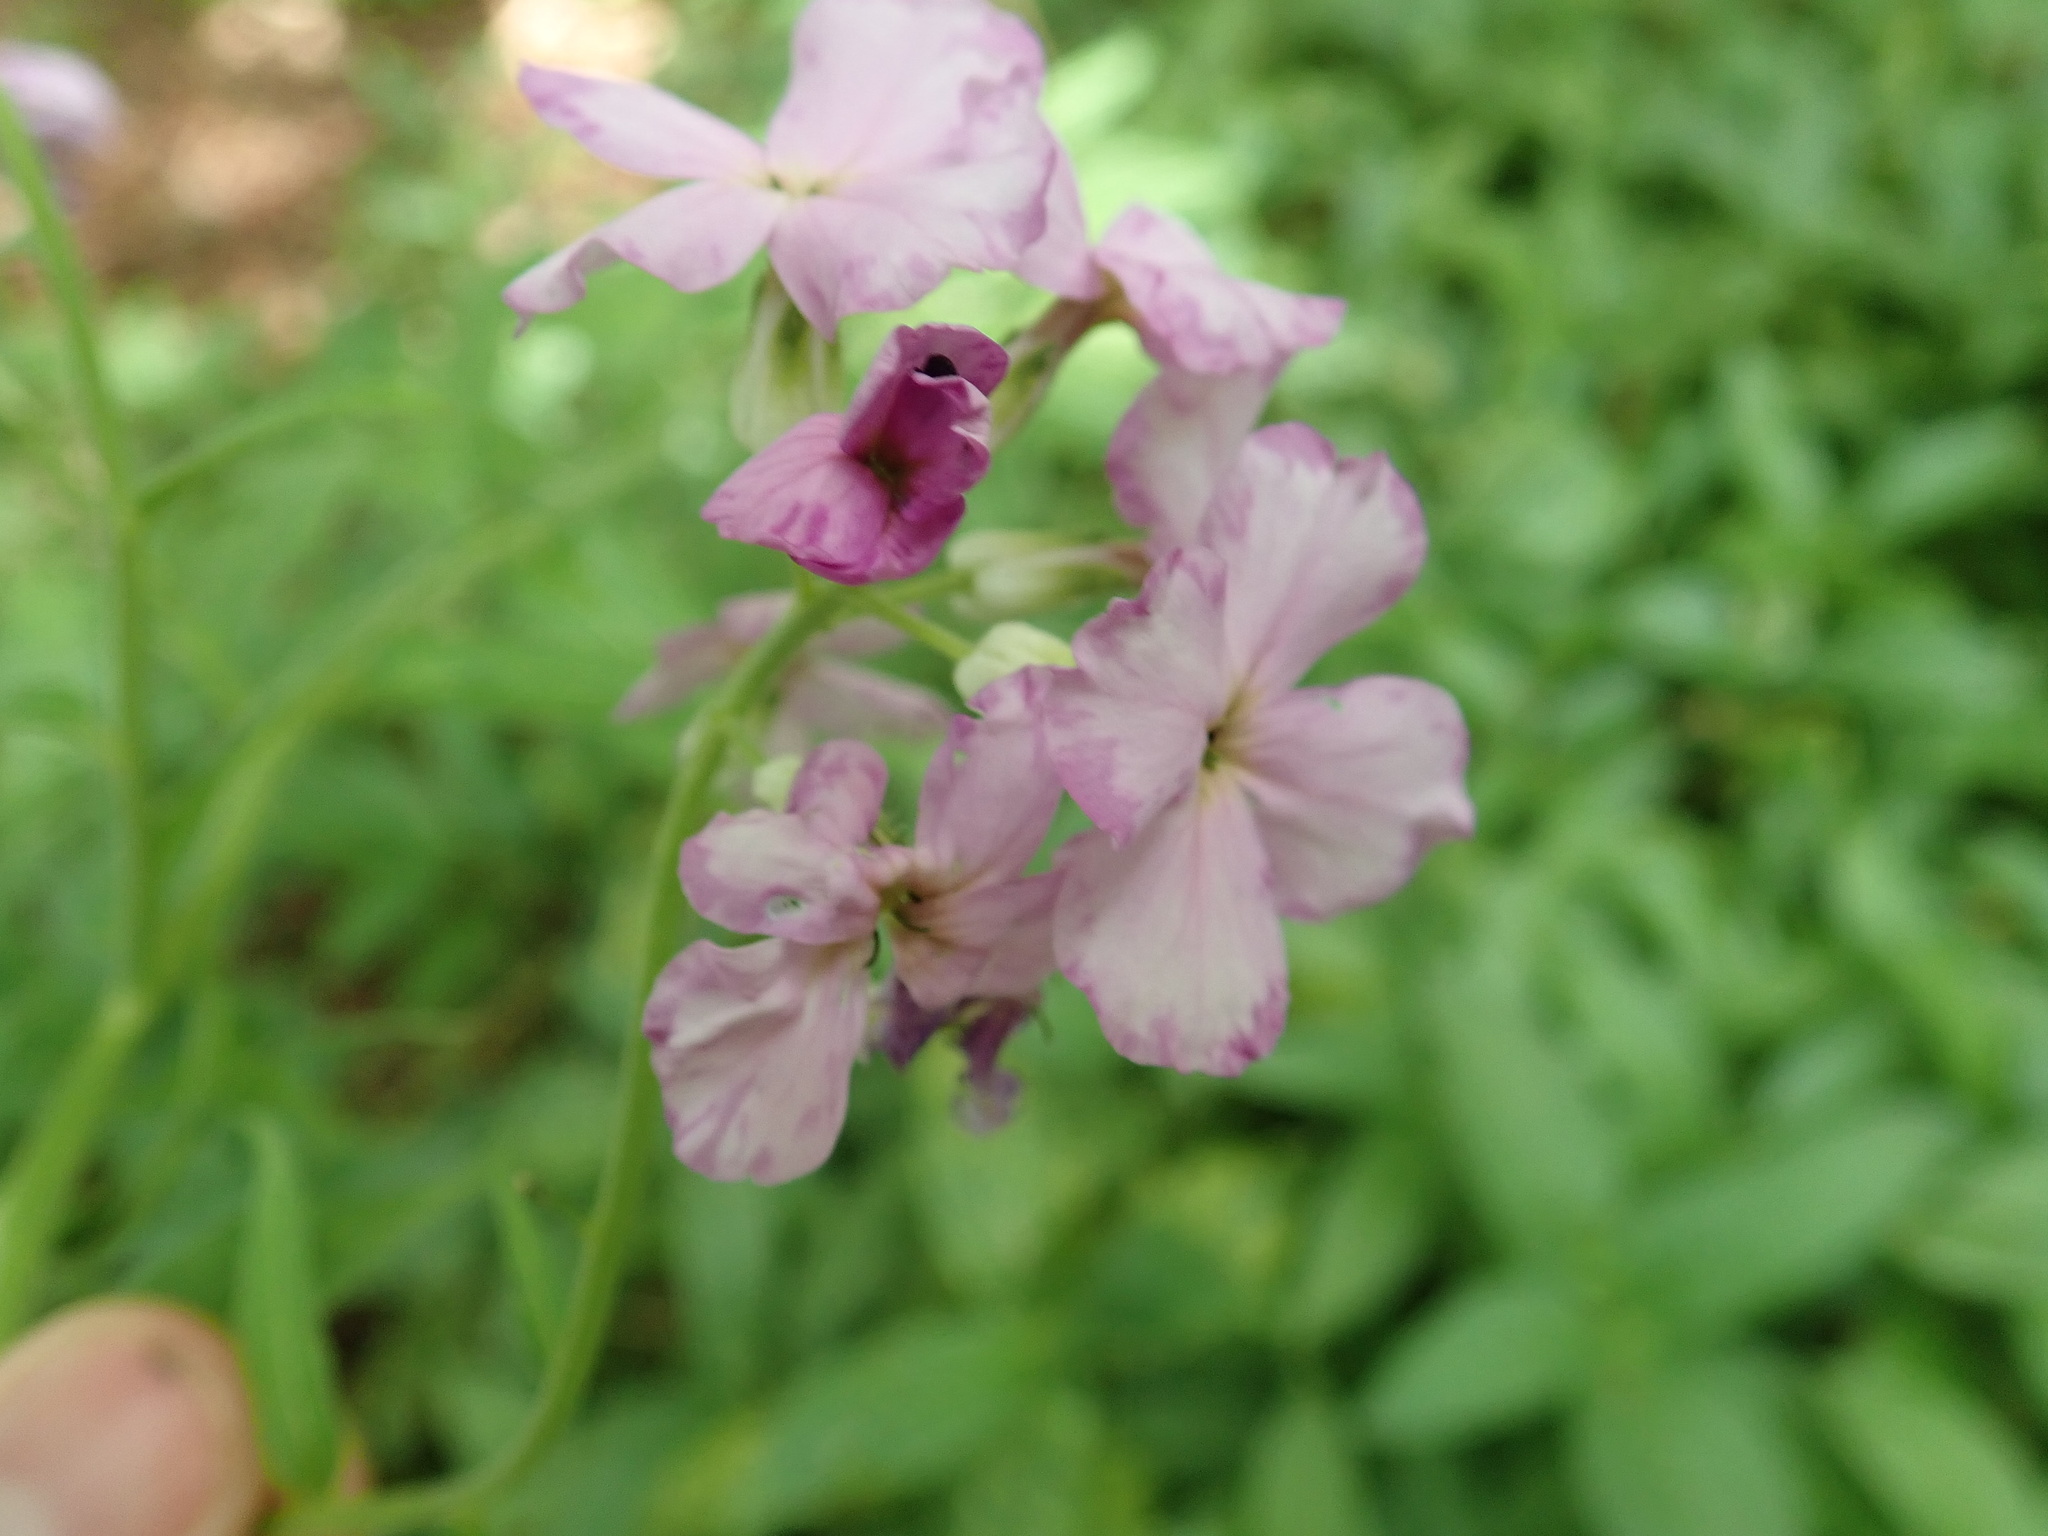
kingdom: Plantae
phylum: Tracheophyta
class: Magnoliopsida
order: Brassicales
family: Brassicaceae
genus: Hesperis
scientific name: Hesperis matronalis
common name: Dame's-violet
